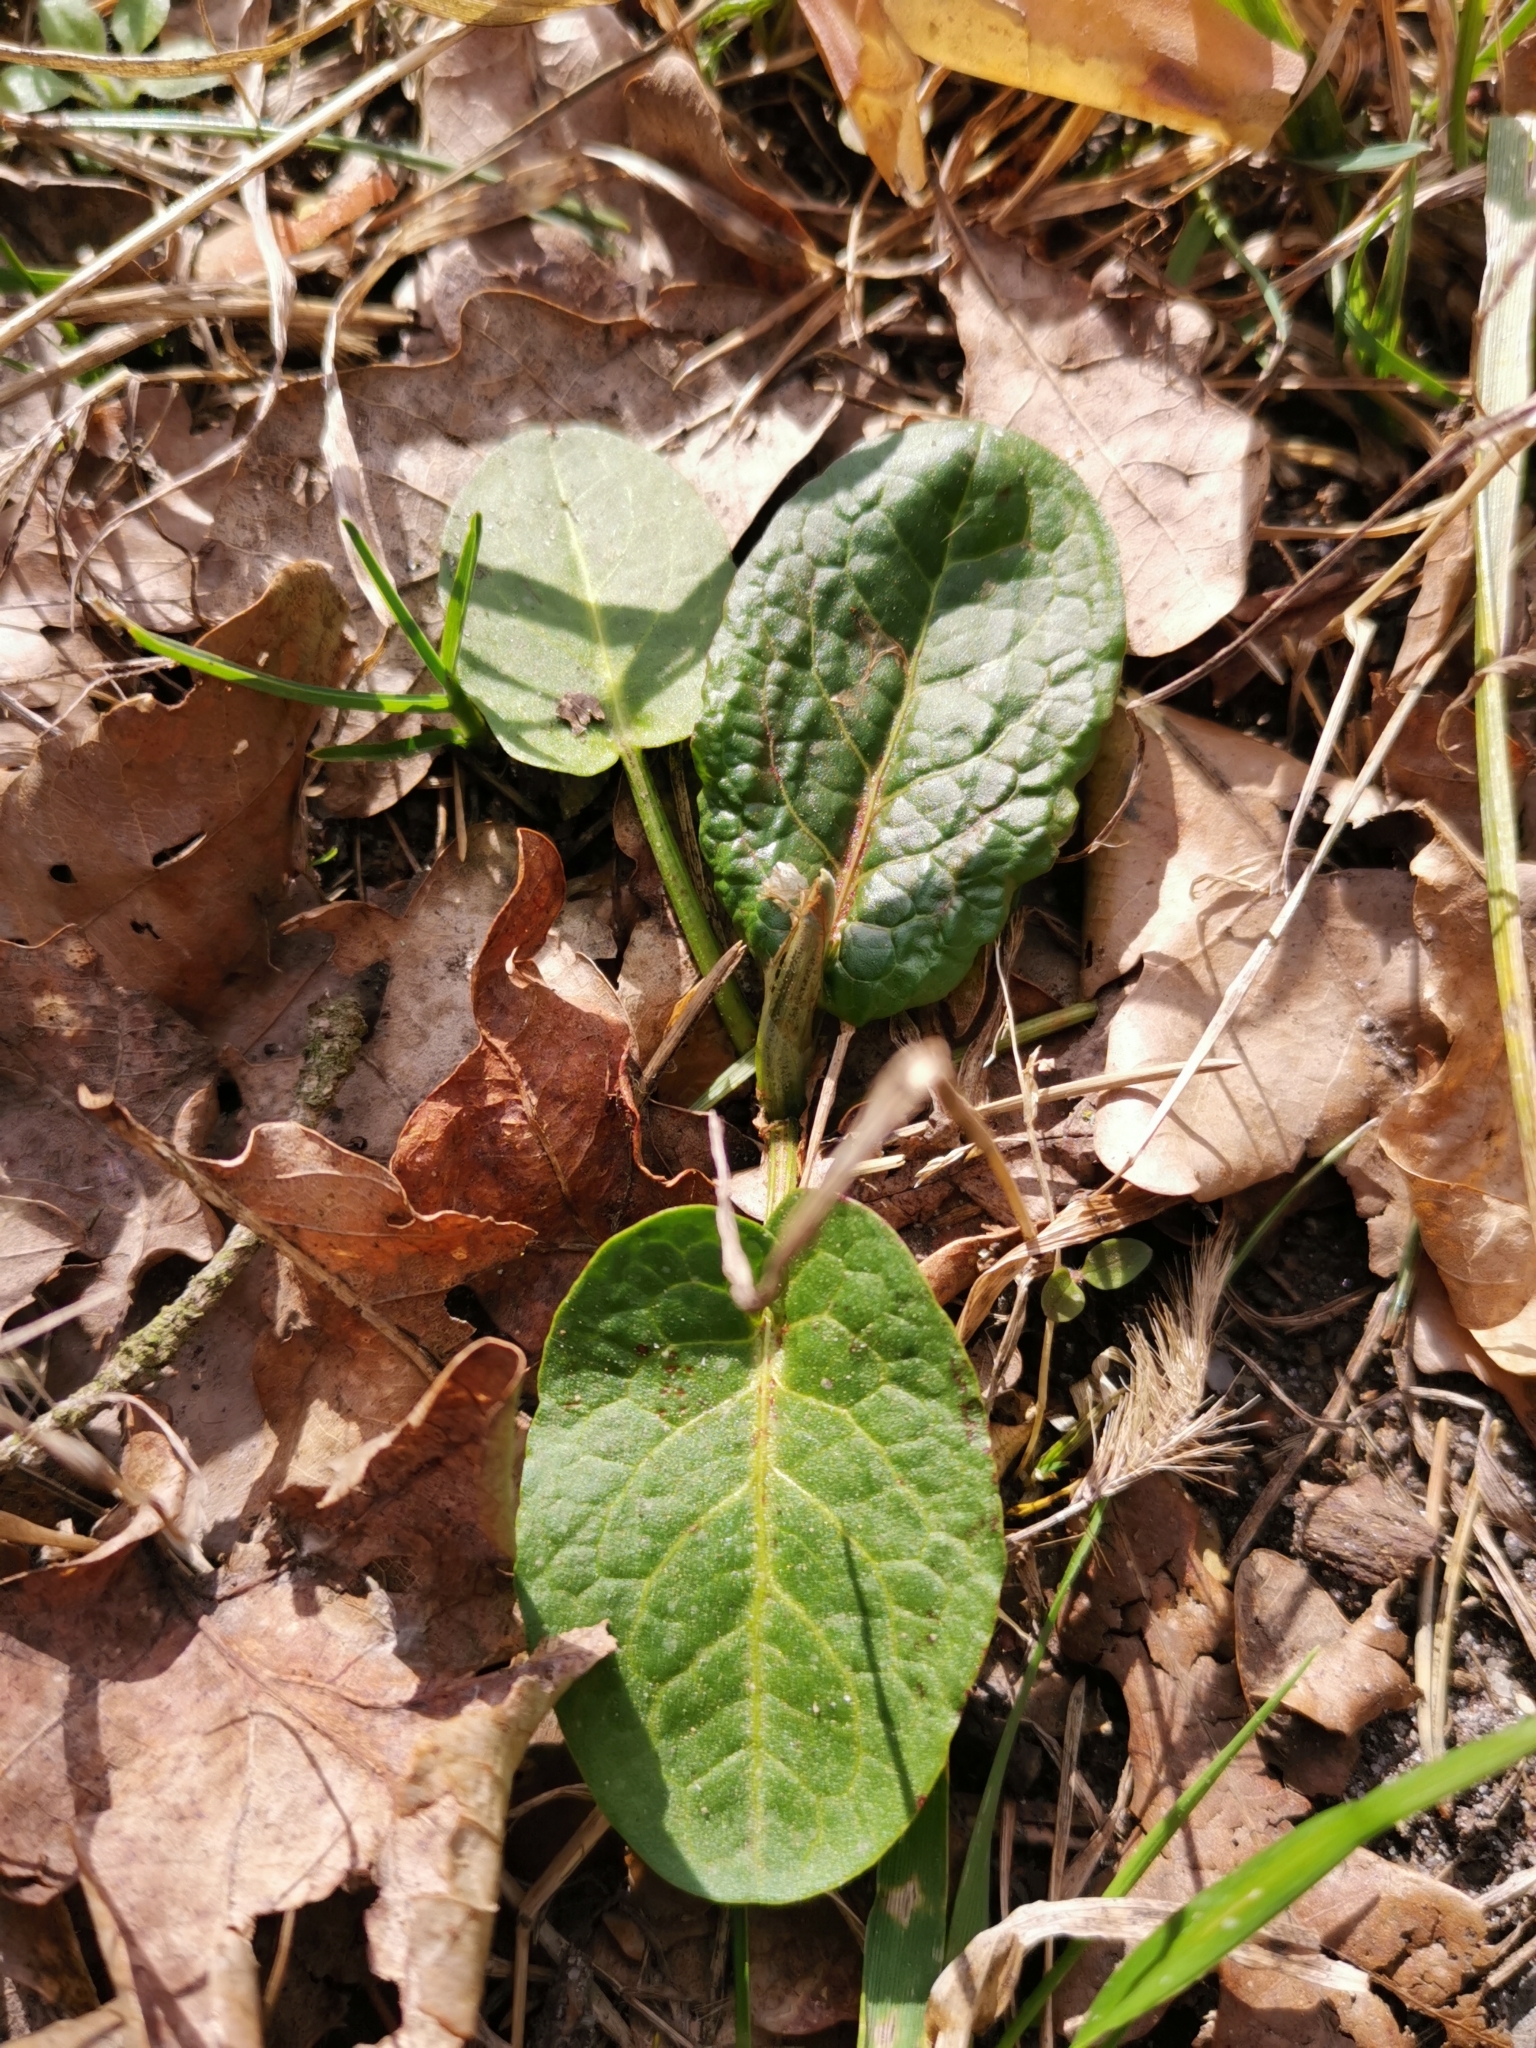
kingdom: Plantae
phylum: Tracheophyta
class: Magnoliopsida
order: Caryophyllales
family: Polygonaceae
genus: Rumex
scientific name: Rumex obtusifolius
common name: Bitter dock
